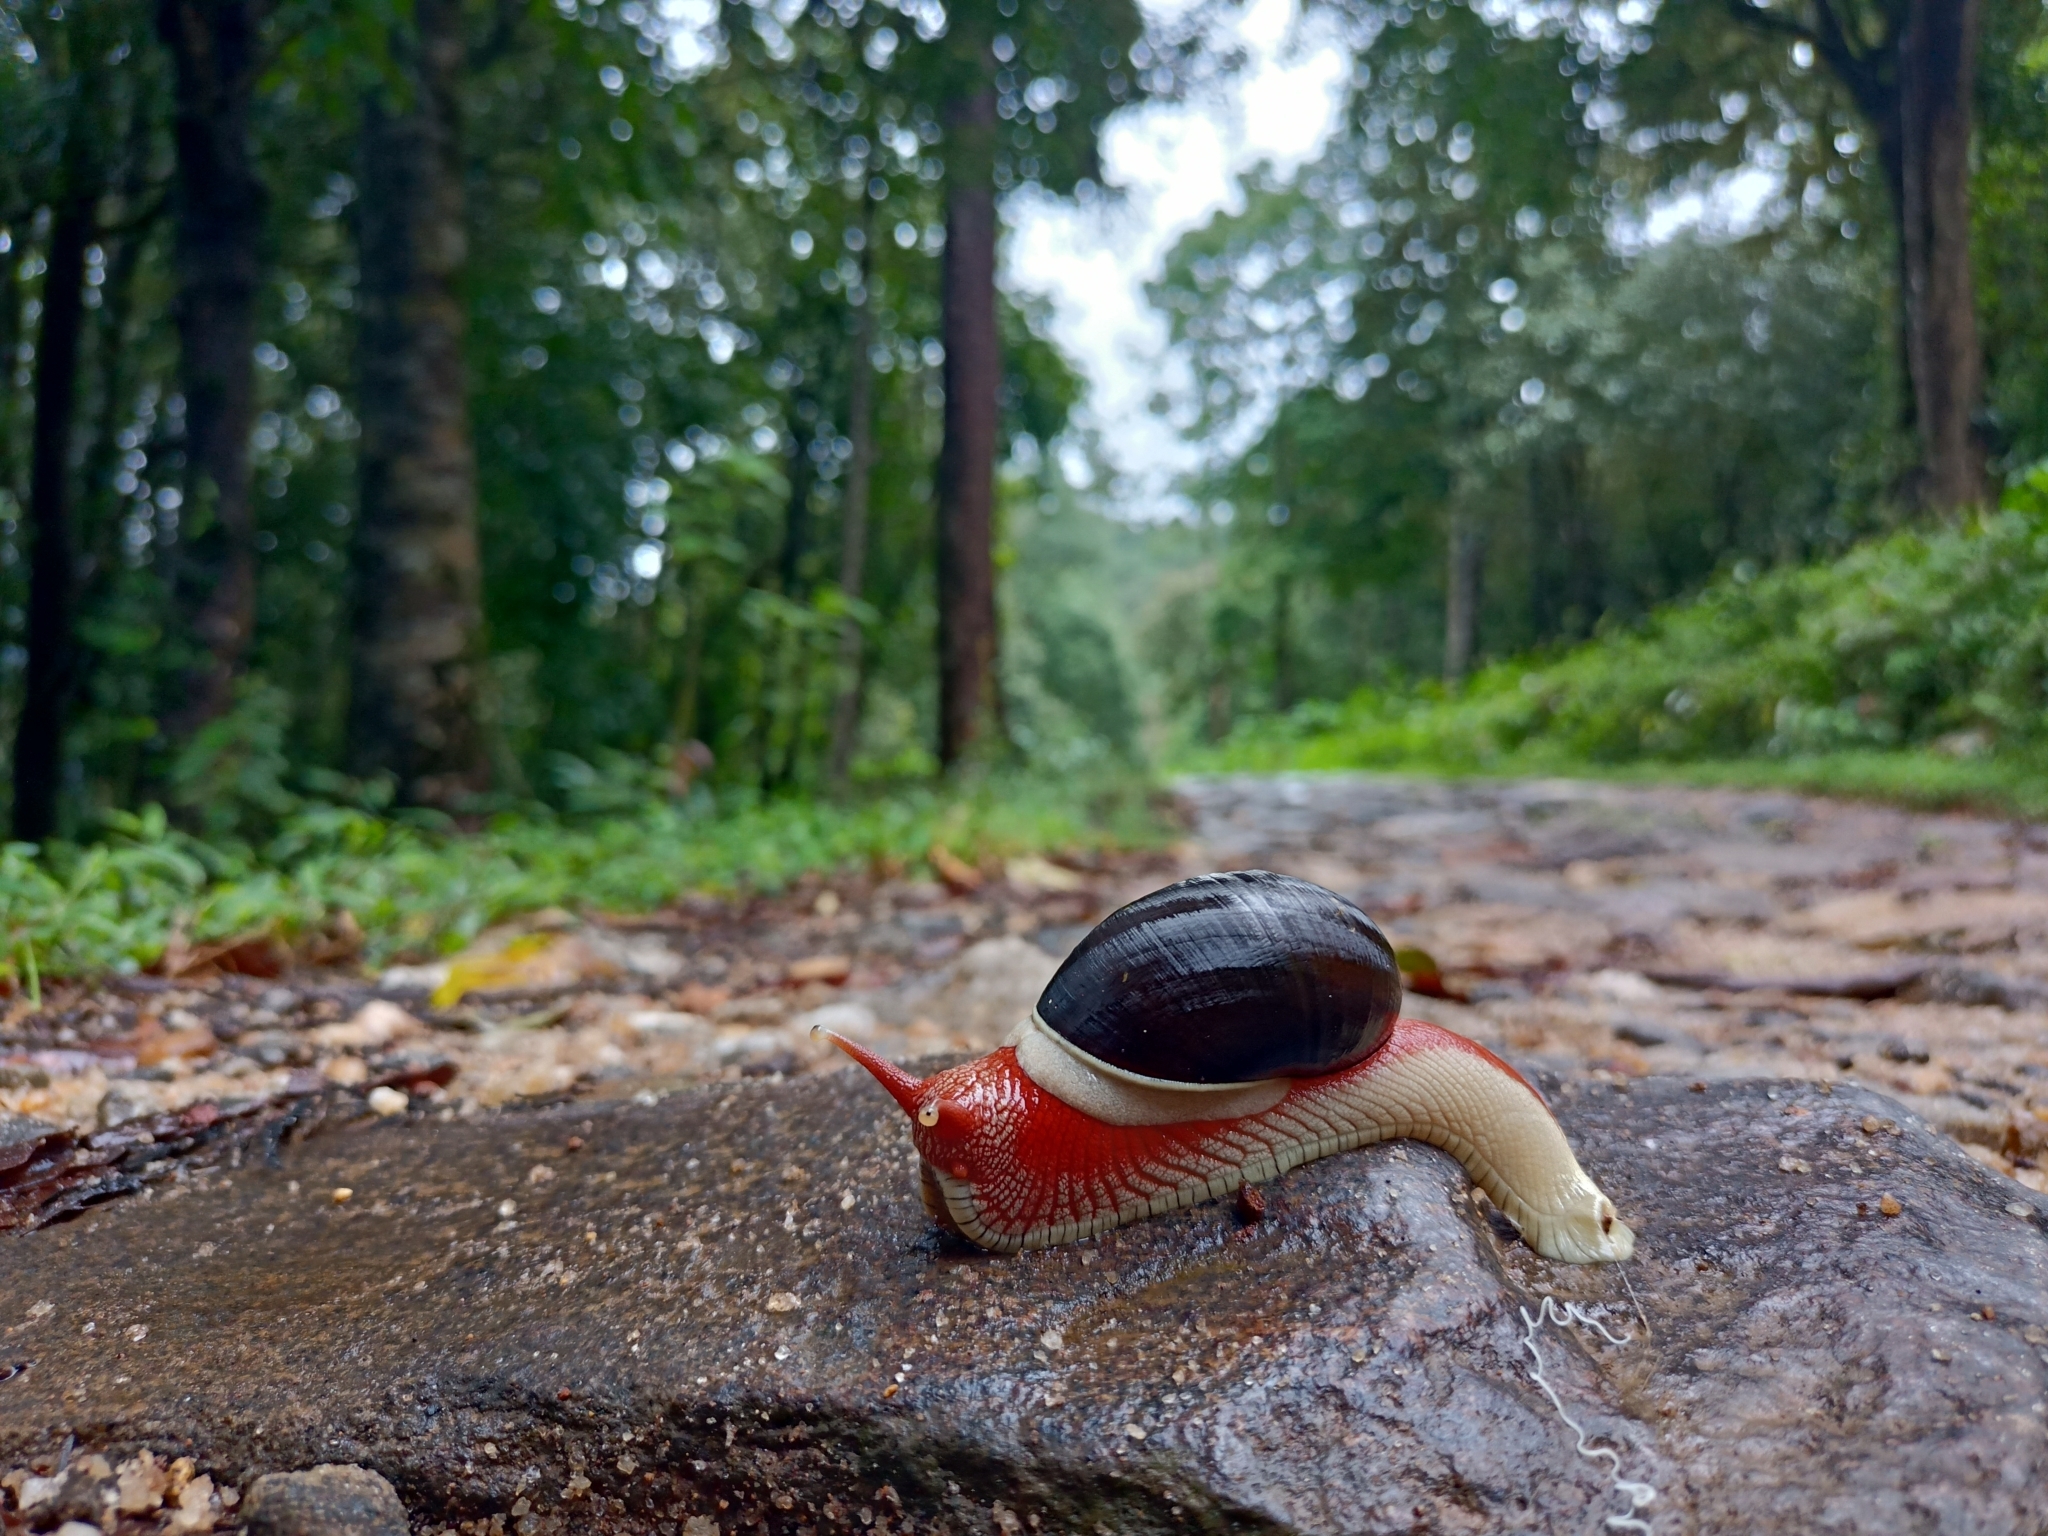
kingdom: Animalia
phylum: Mollusca
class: Gastropoda
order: Stylommatophora
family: Ariophantidae
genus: Indrella
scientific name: Indrella ampulla
